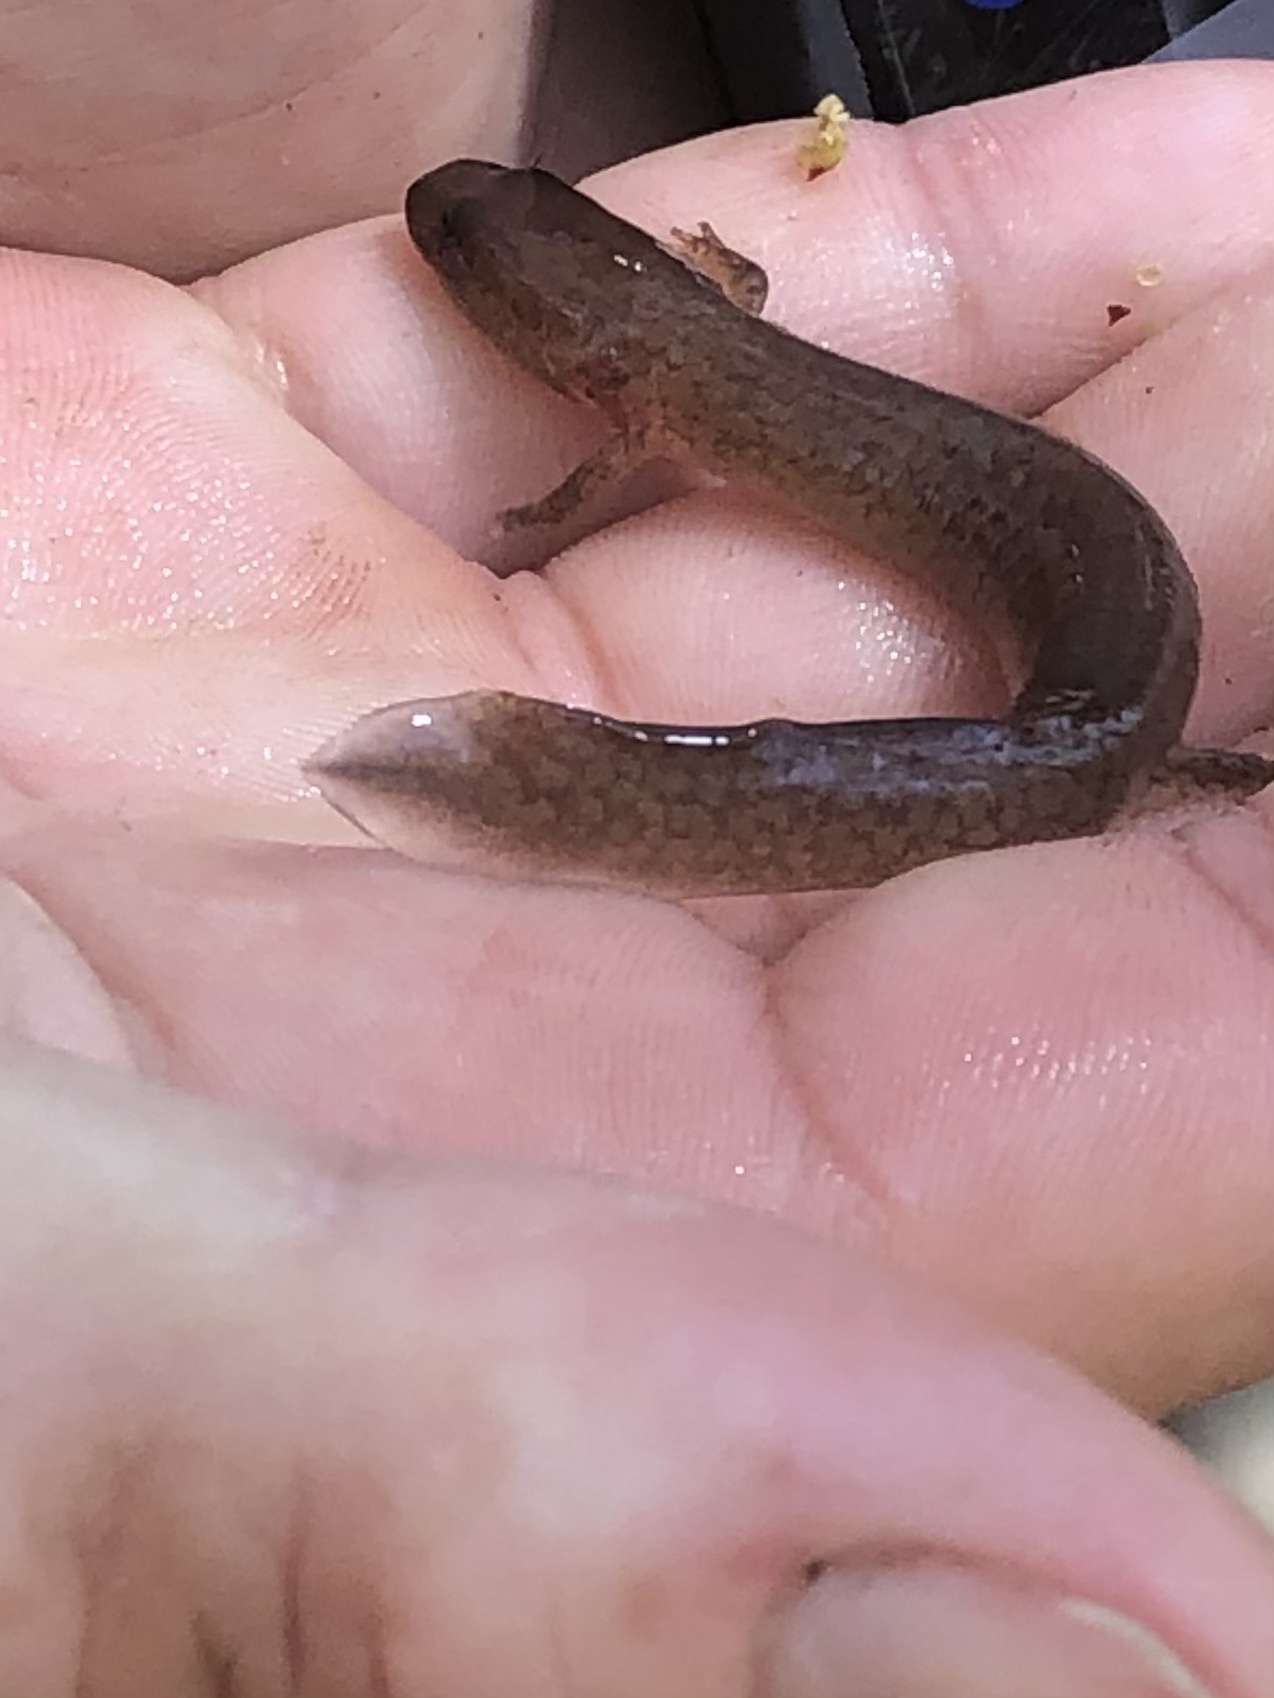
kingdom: Animalia
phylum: Chordata
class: Amphibia
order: Caudata
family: Plethodontidae
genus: Gyrinophilus
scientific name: Gyrinophilus porphyriticus
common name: Spring salamander
